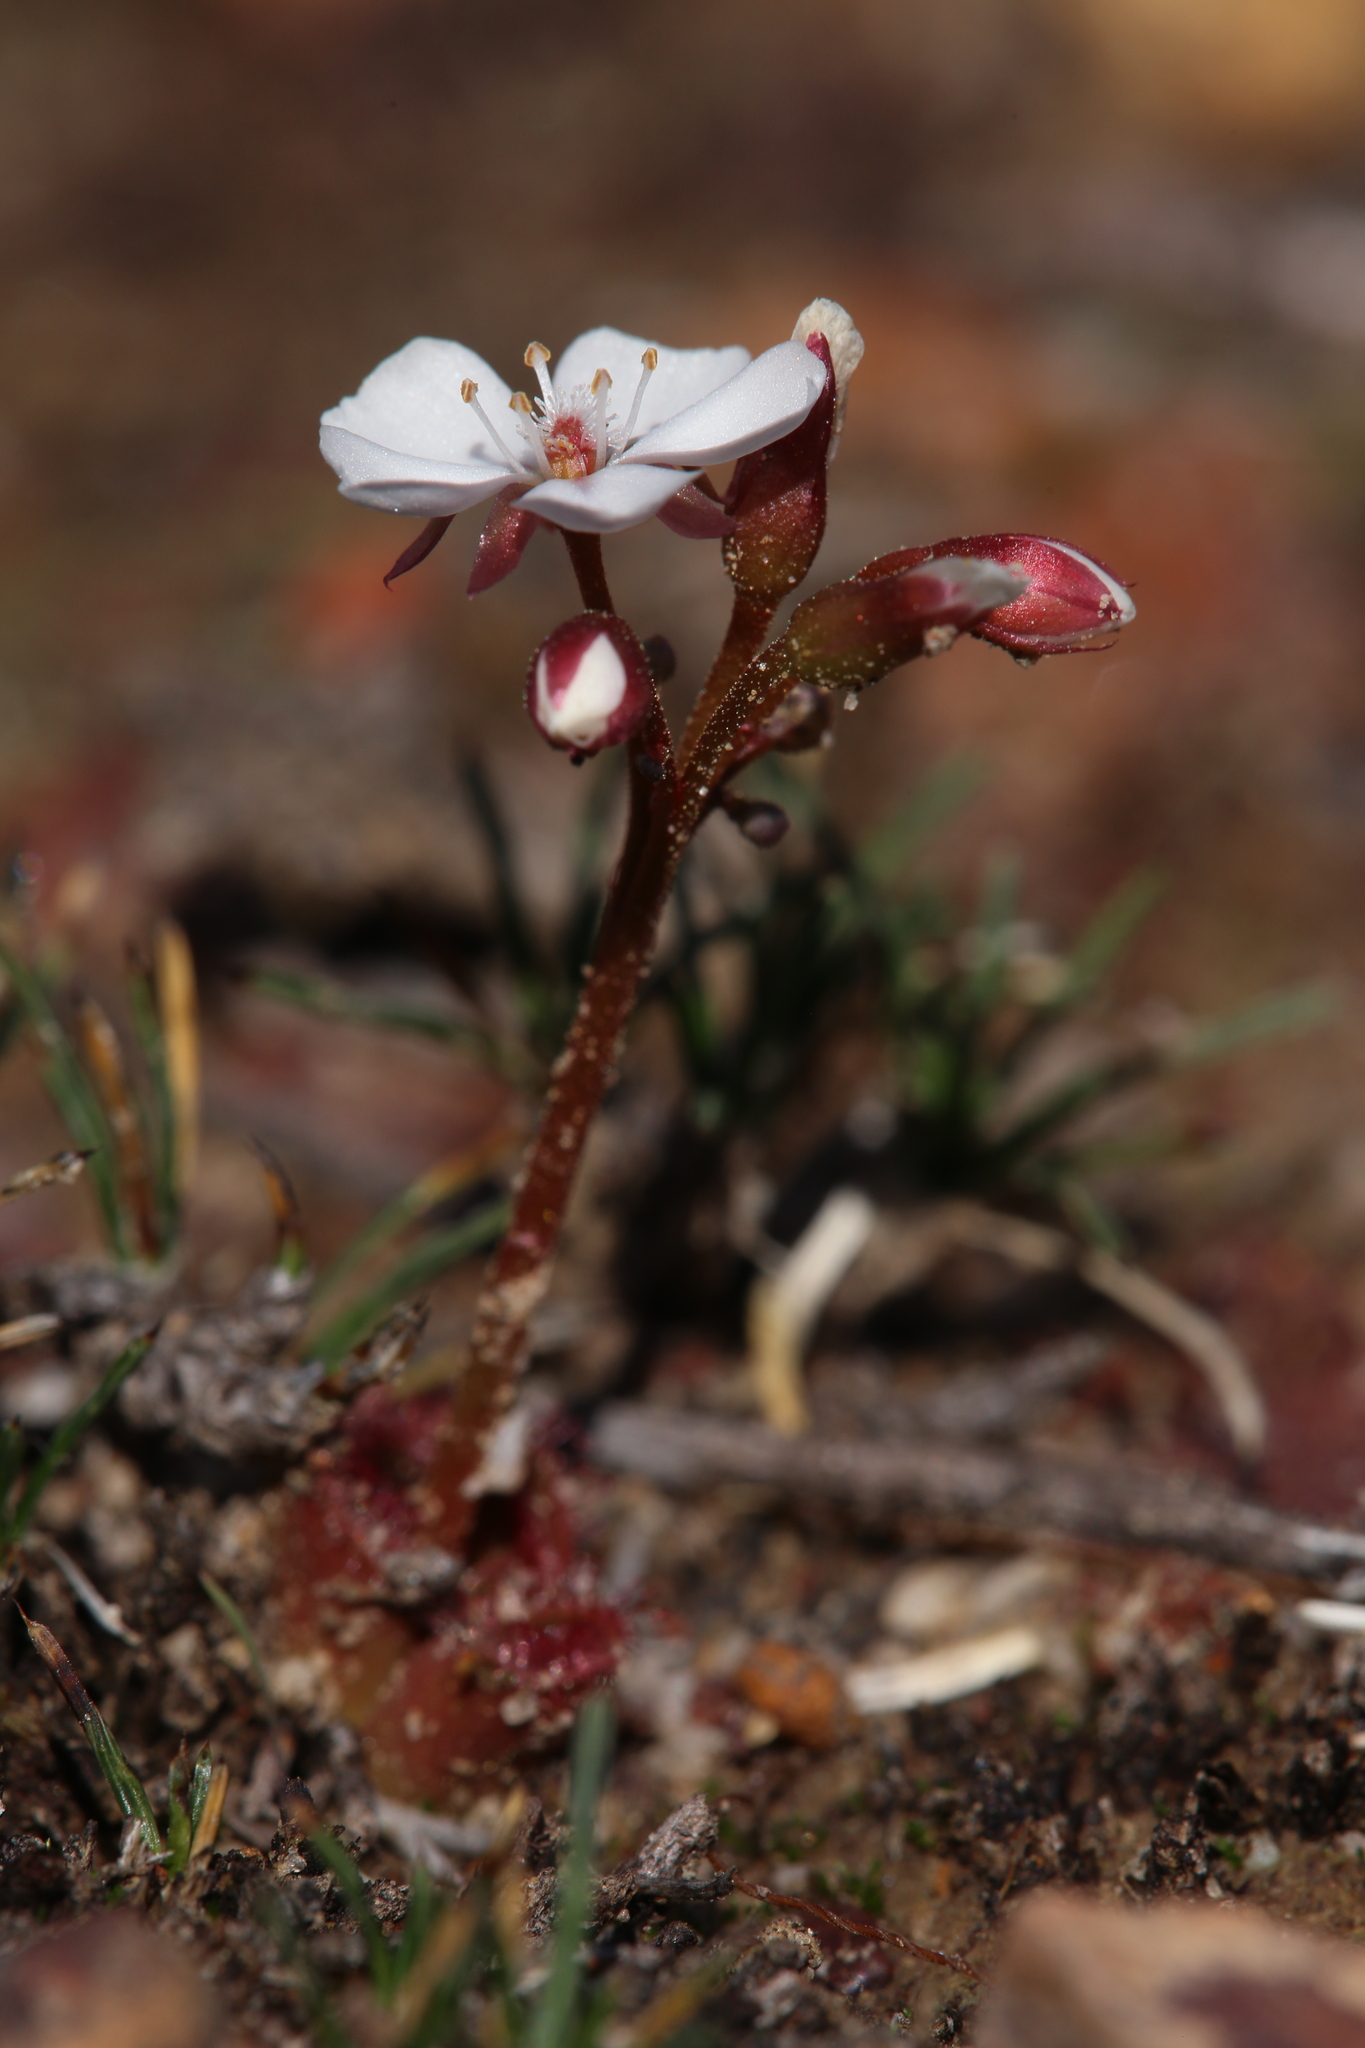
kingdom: Plantae
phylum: Tracheophyta
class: Magnoliopsida
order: Caryophyllales
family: Droseraceae
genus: Drosera
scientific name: Drosera erythrorhiza
